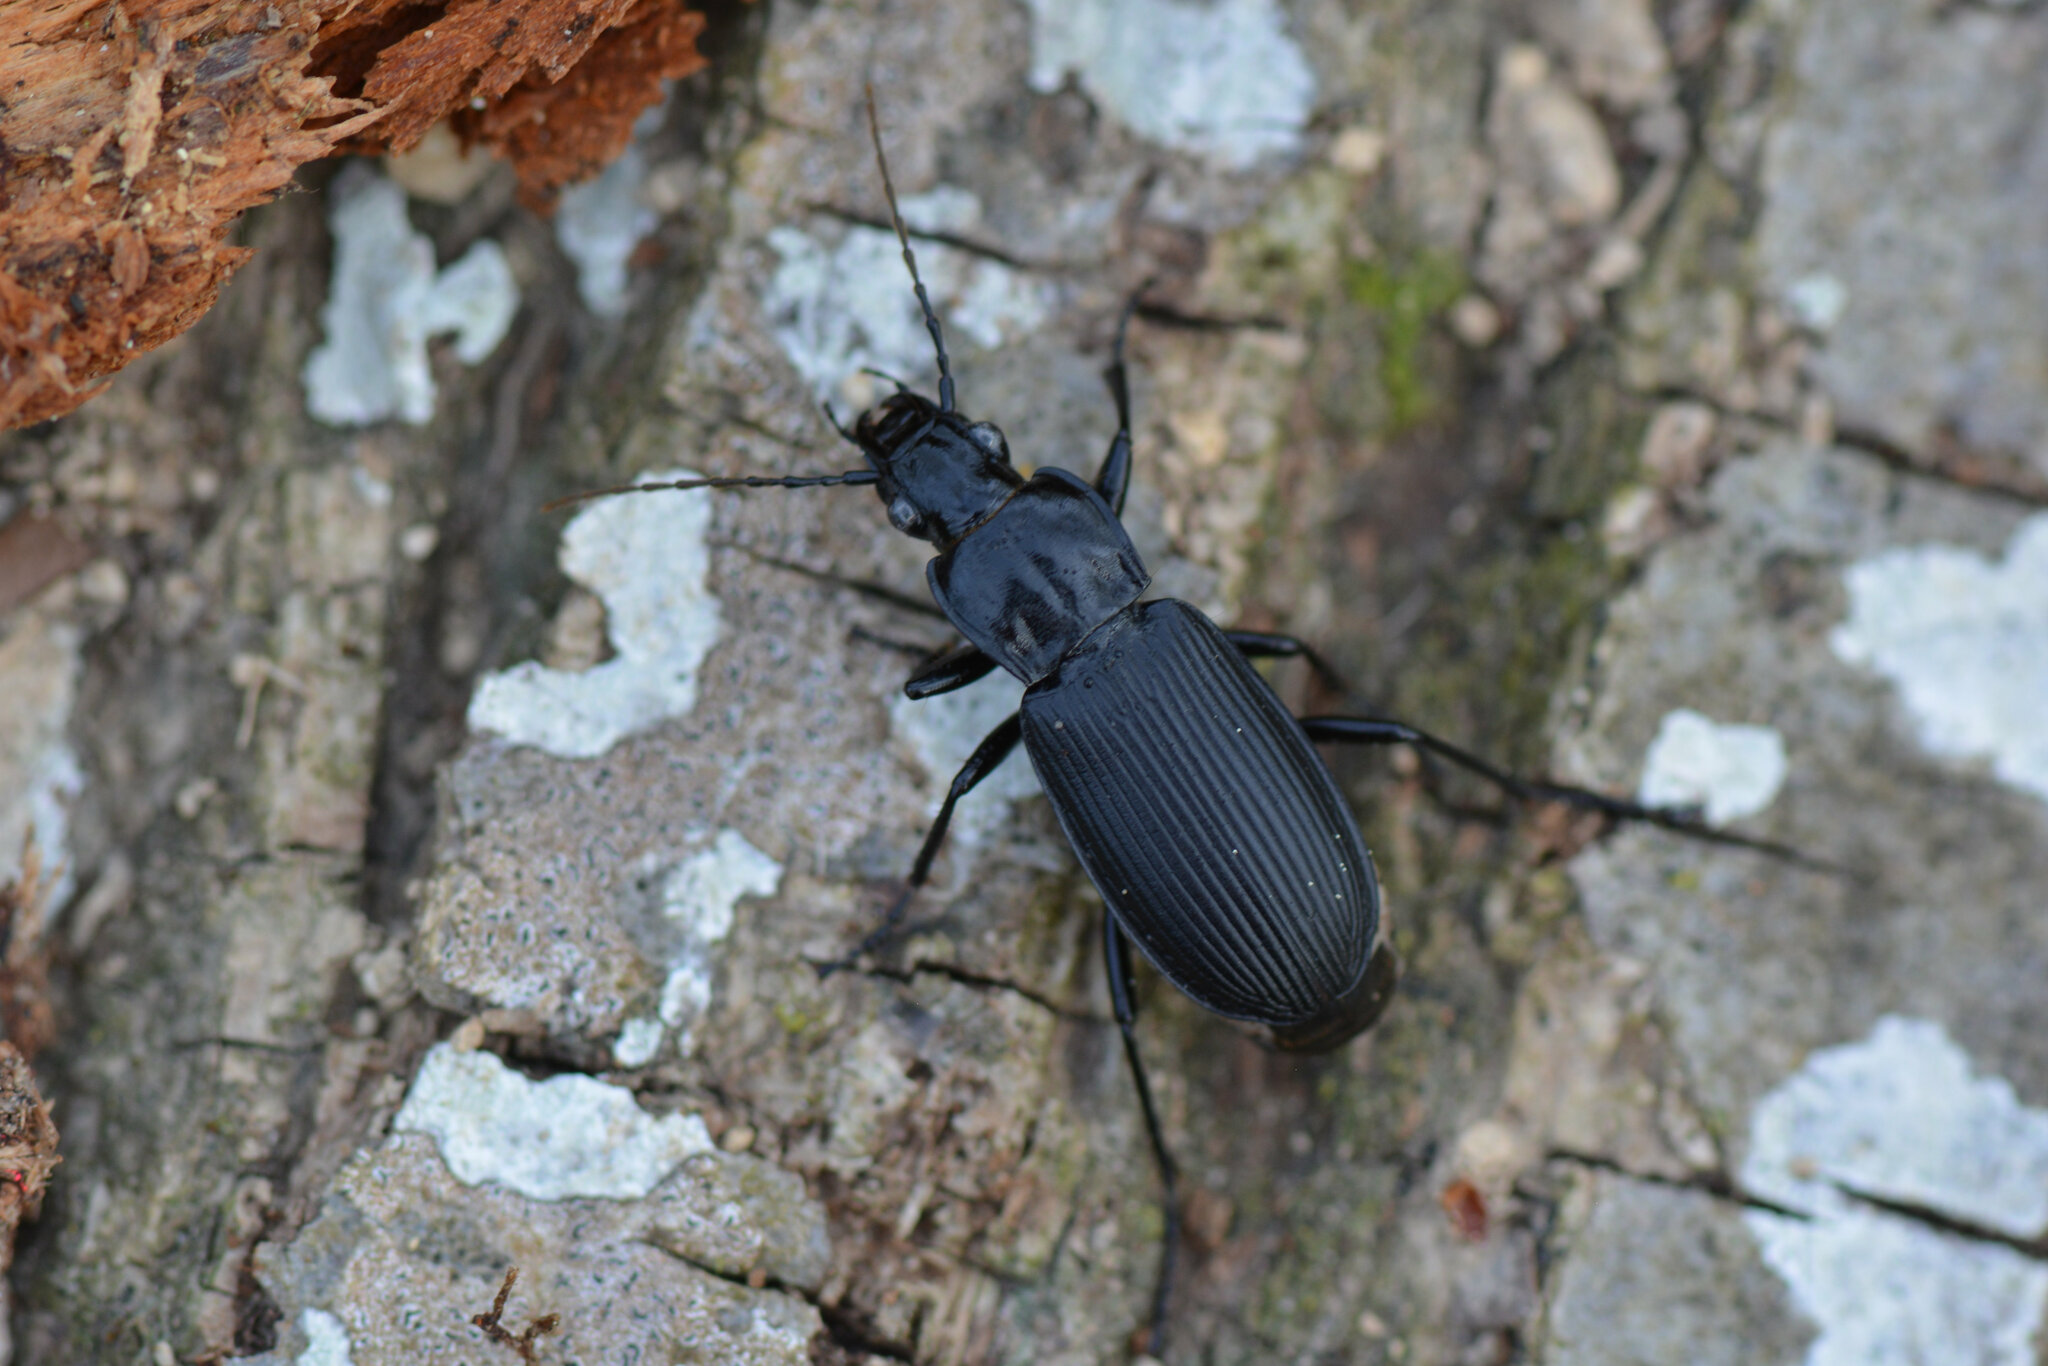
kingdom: Animalia
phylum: Arthropoda
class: Insecta
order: Coleoptera
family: Carabidae
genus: Pterostichus
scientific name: Pterostichus niger
